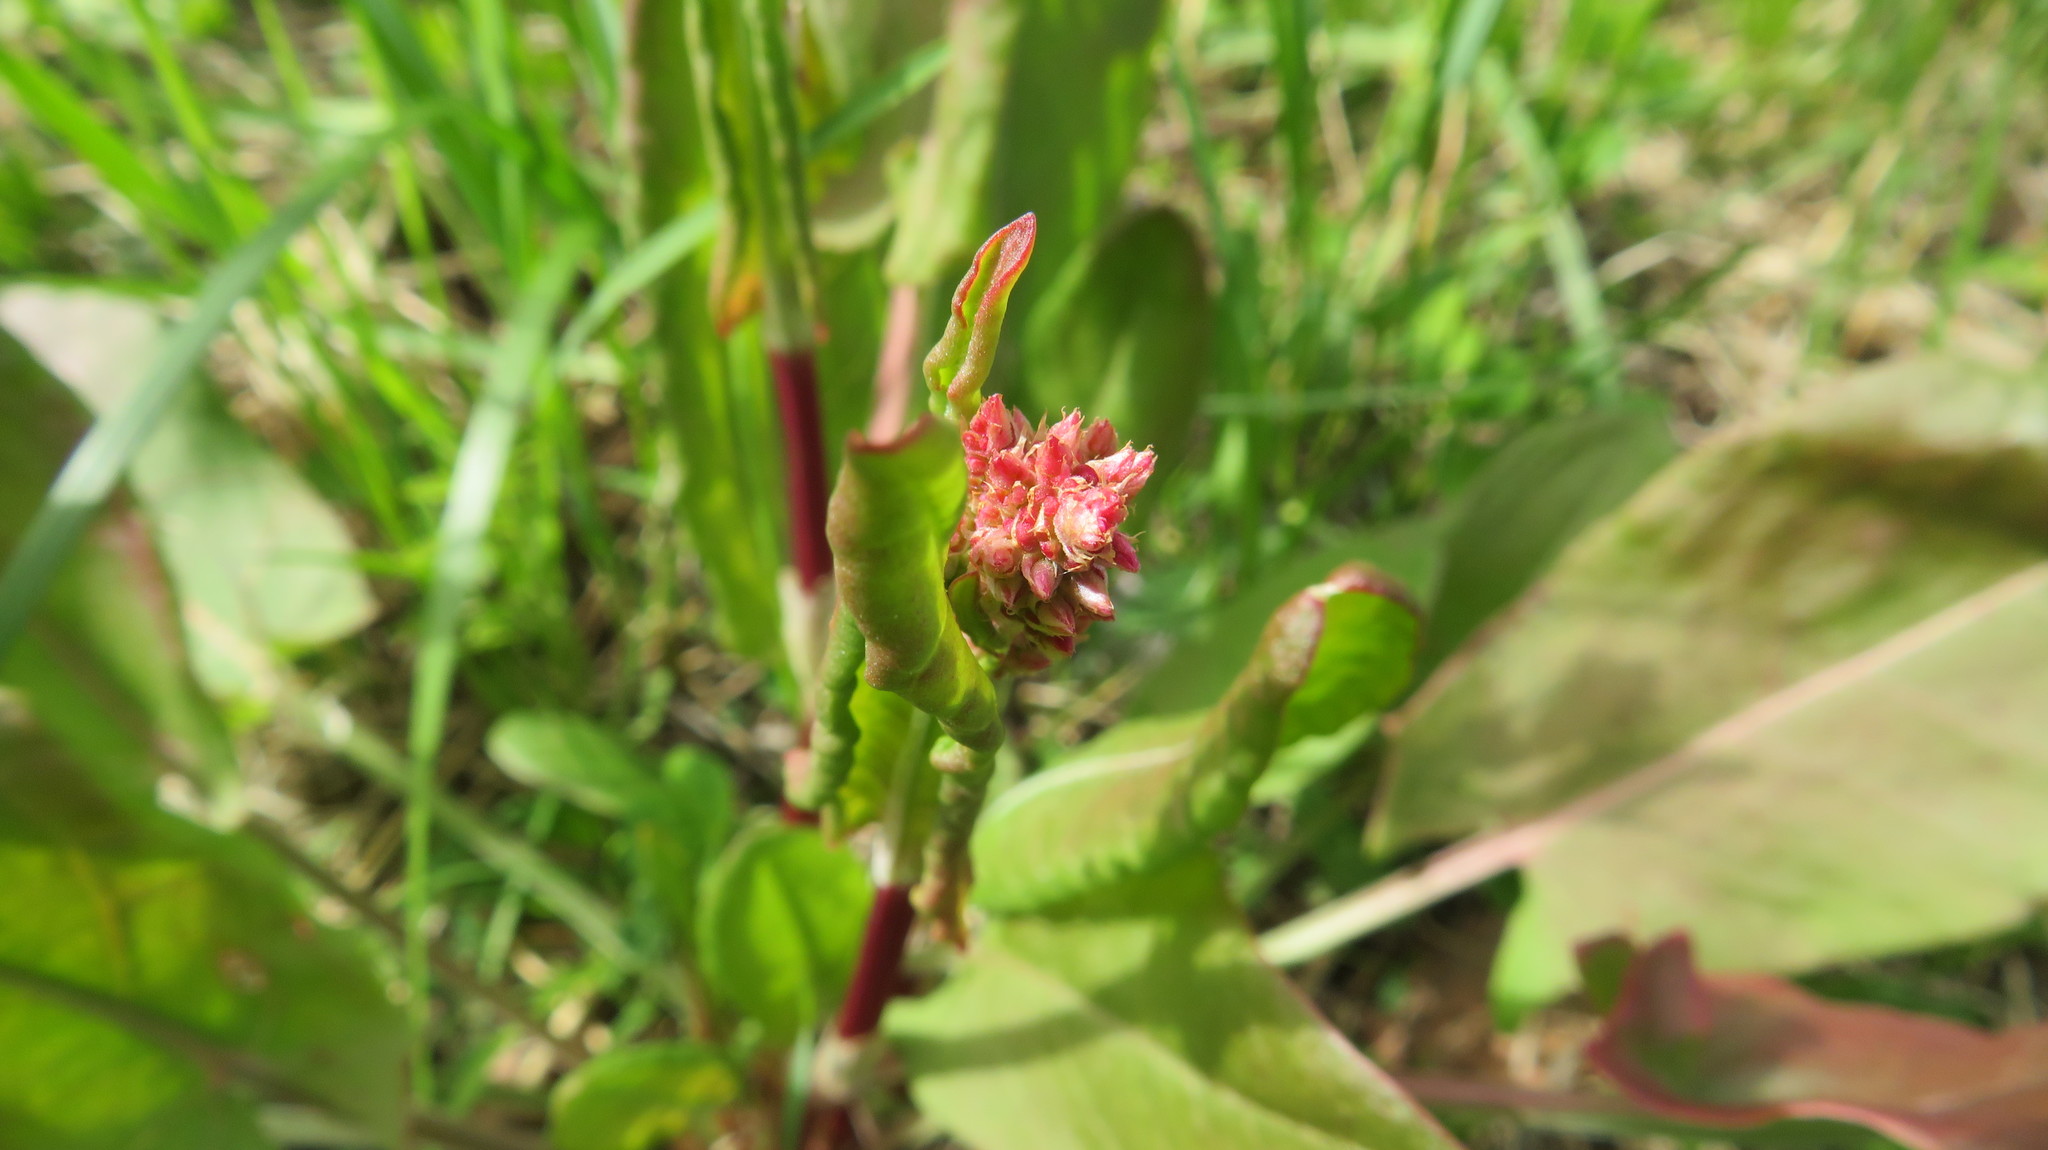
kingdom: Plantae
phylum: Tracheophyta
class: Magnoliopsida
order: Caryophyllales
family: Polygonaceae
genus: Rumex
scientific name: Rumex thyrsiflorus
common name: Garden sorrel
